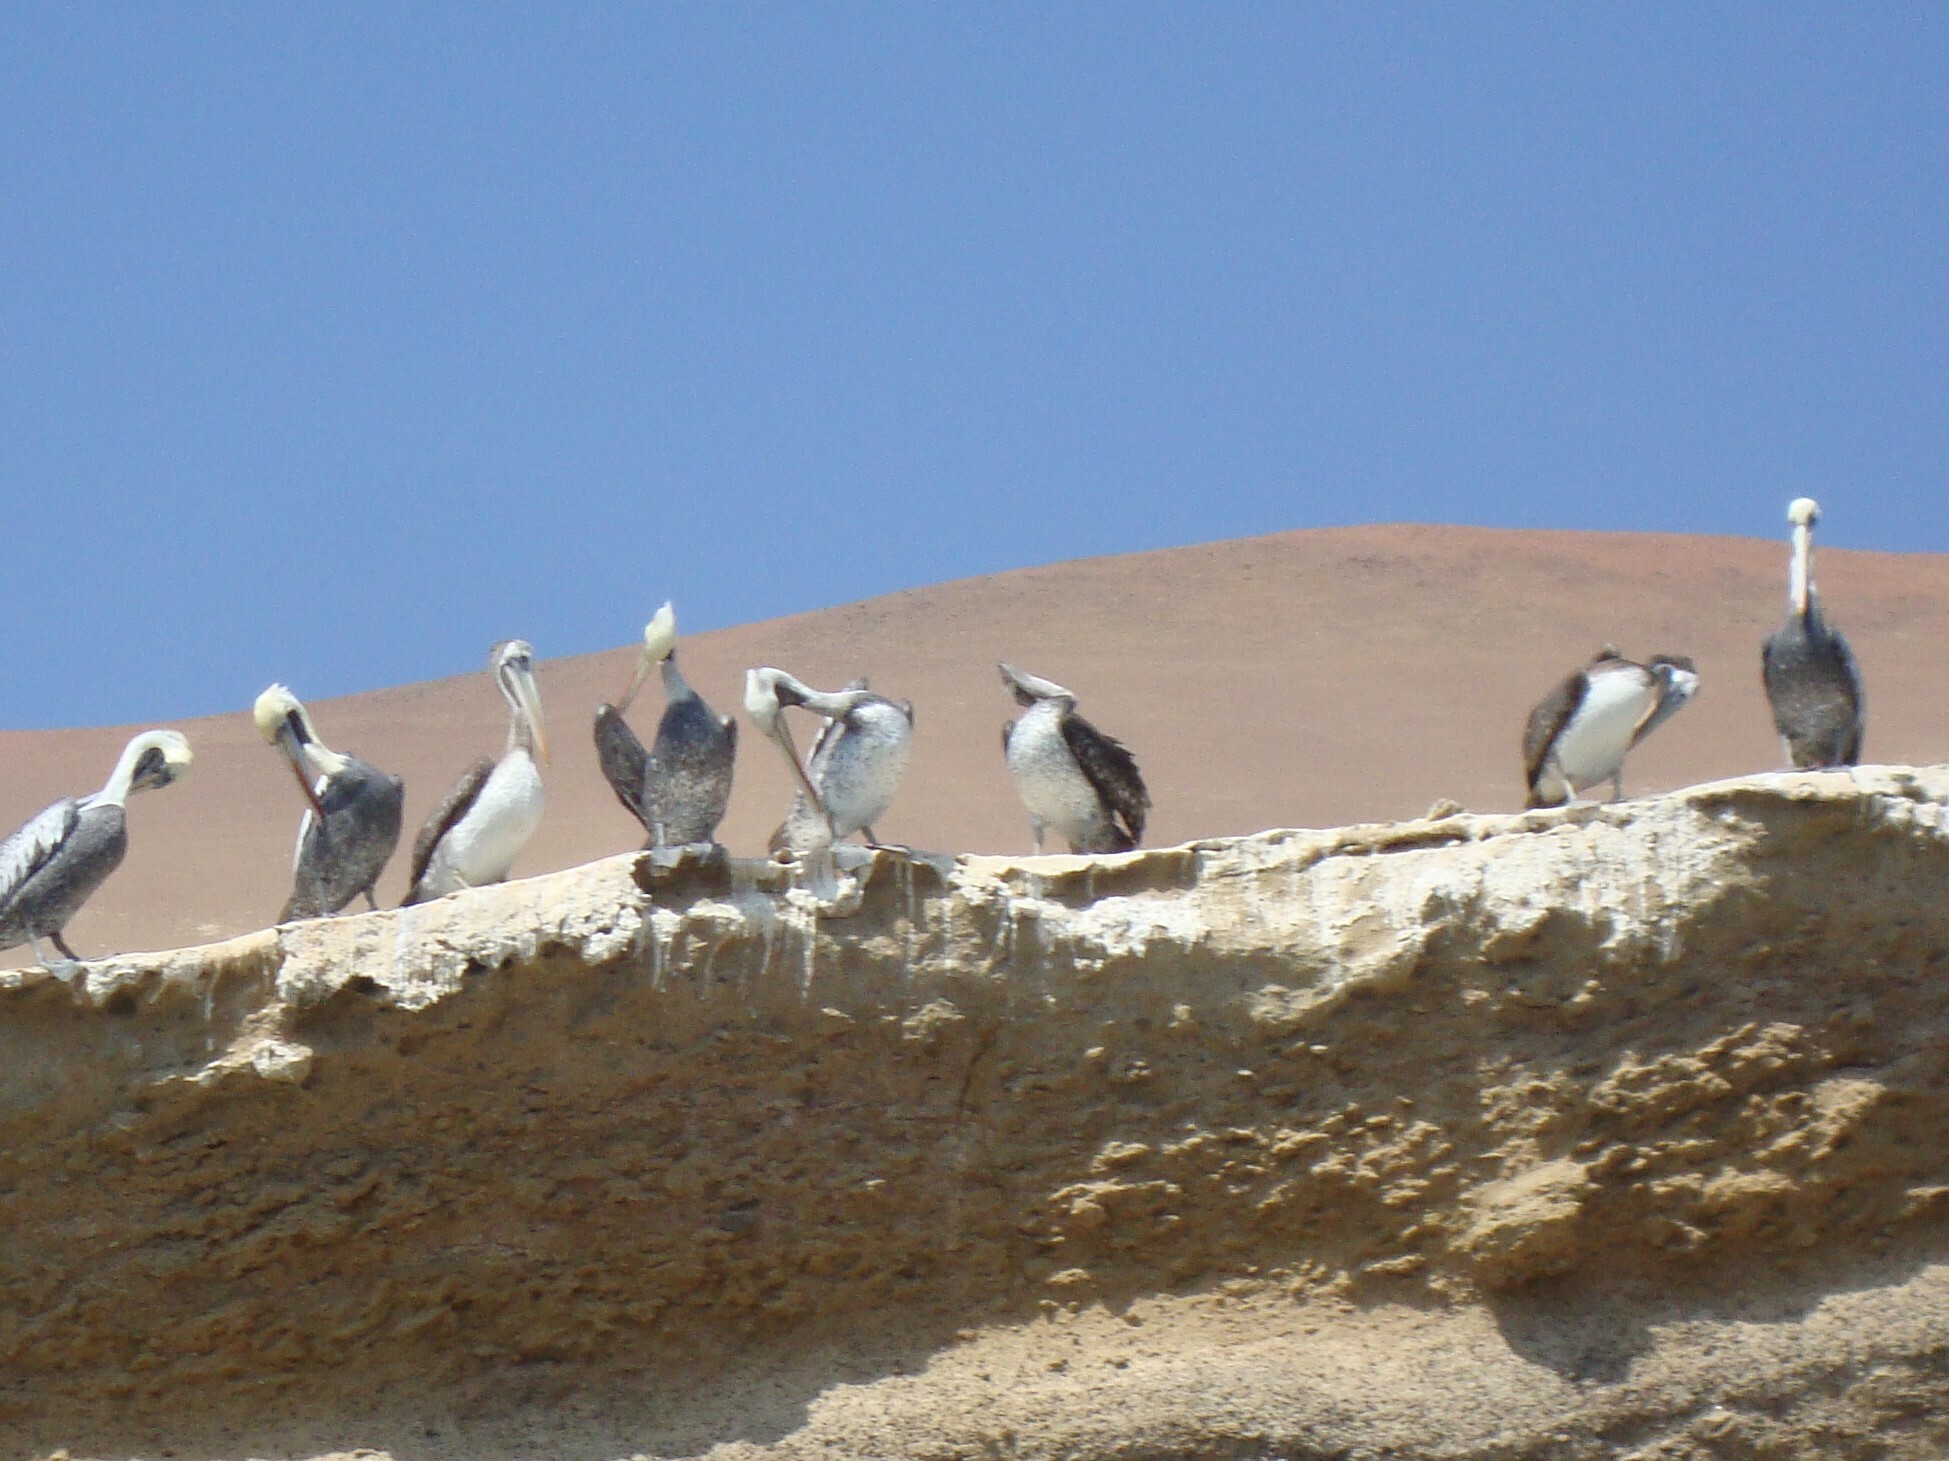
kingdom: Animalia
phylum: Chordata
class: Aves
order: Pelecaniformes
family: Pelecanidae
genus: Pelecanus
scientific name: Pelecanus thagus
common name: Peruvian pelican
